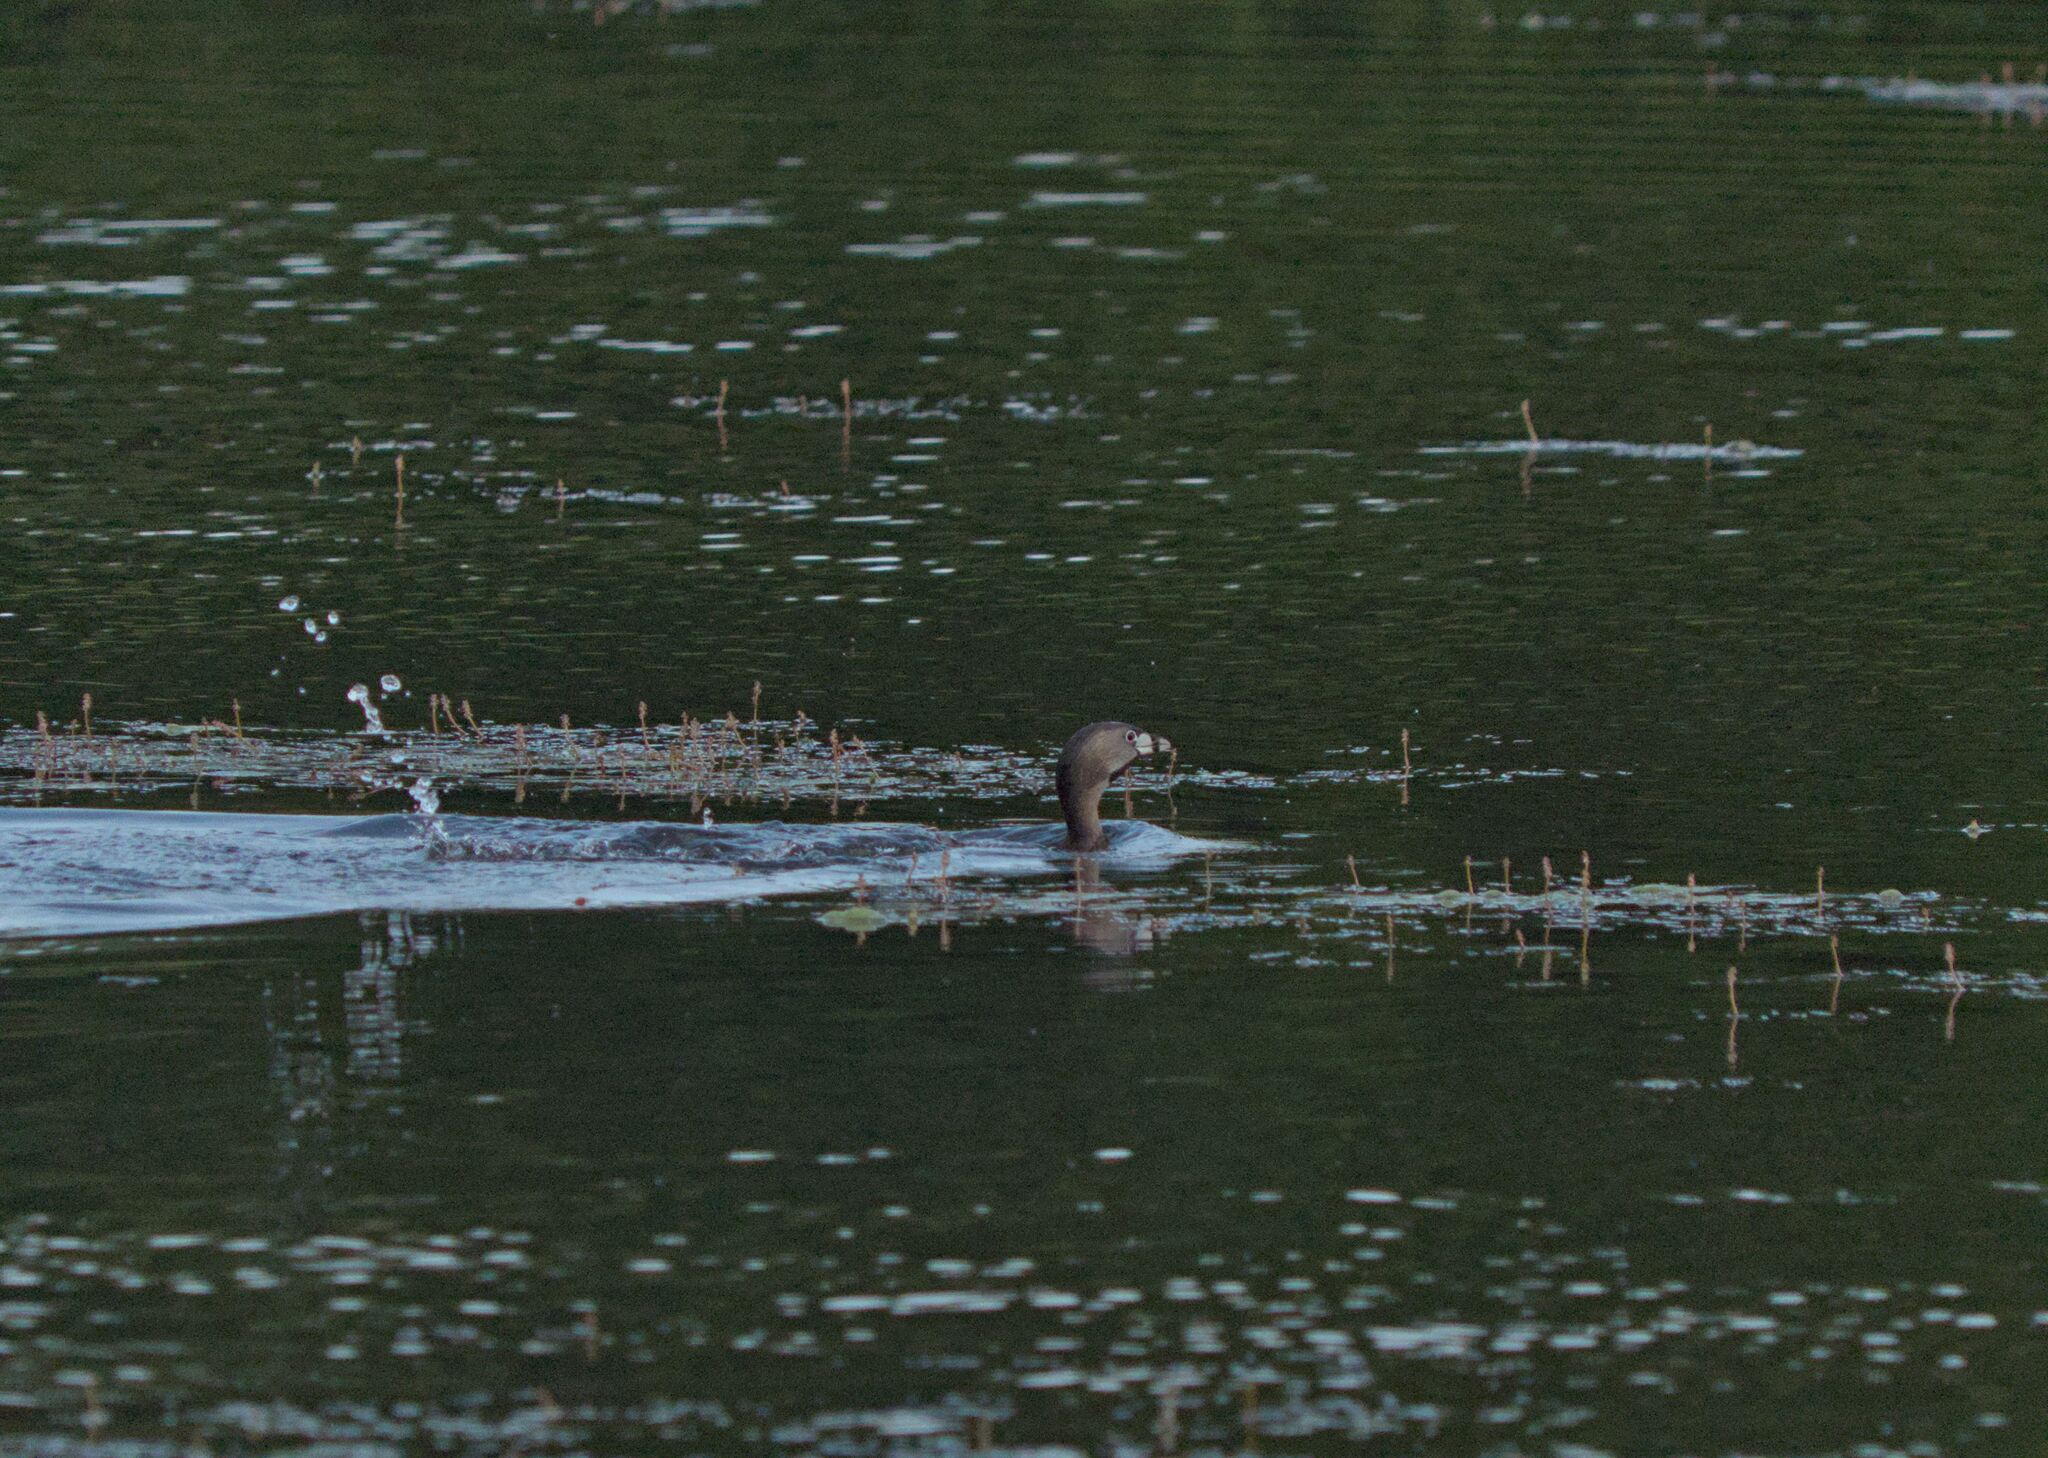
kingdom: Animalia
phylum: Chordata
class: Aves
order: Podicipediformes
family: Podicipedidae
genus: Podilymbus
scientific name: Podilymbus podiceps
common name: Pied-billed grebe
